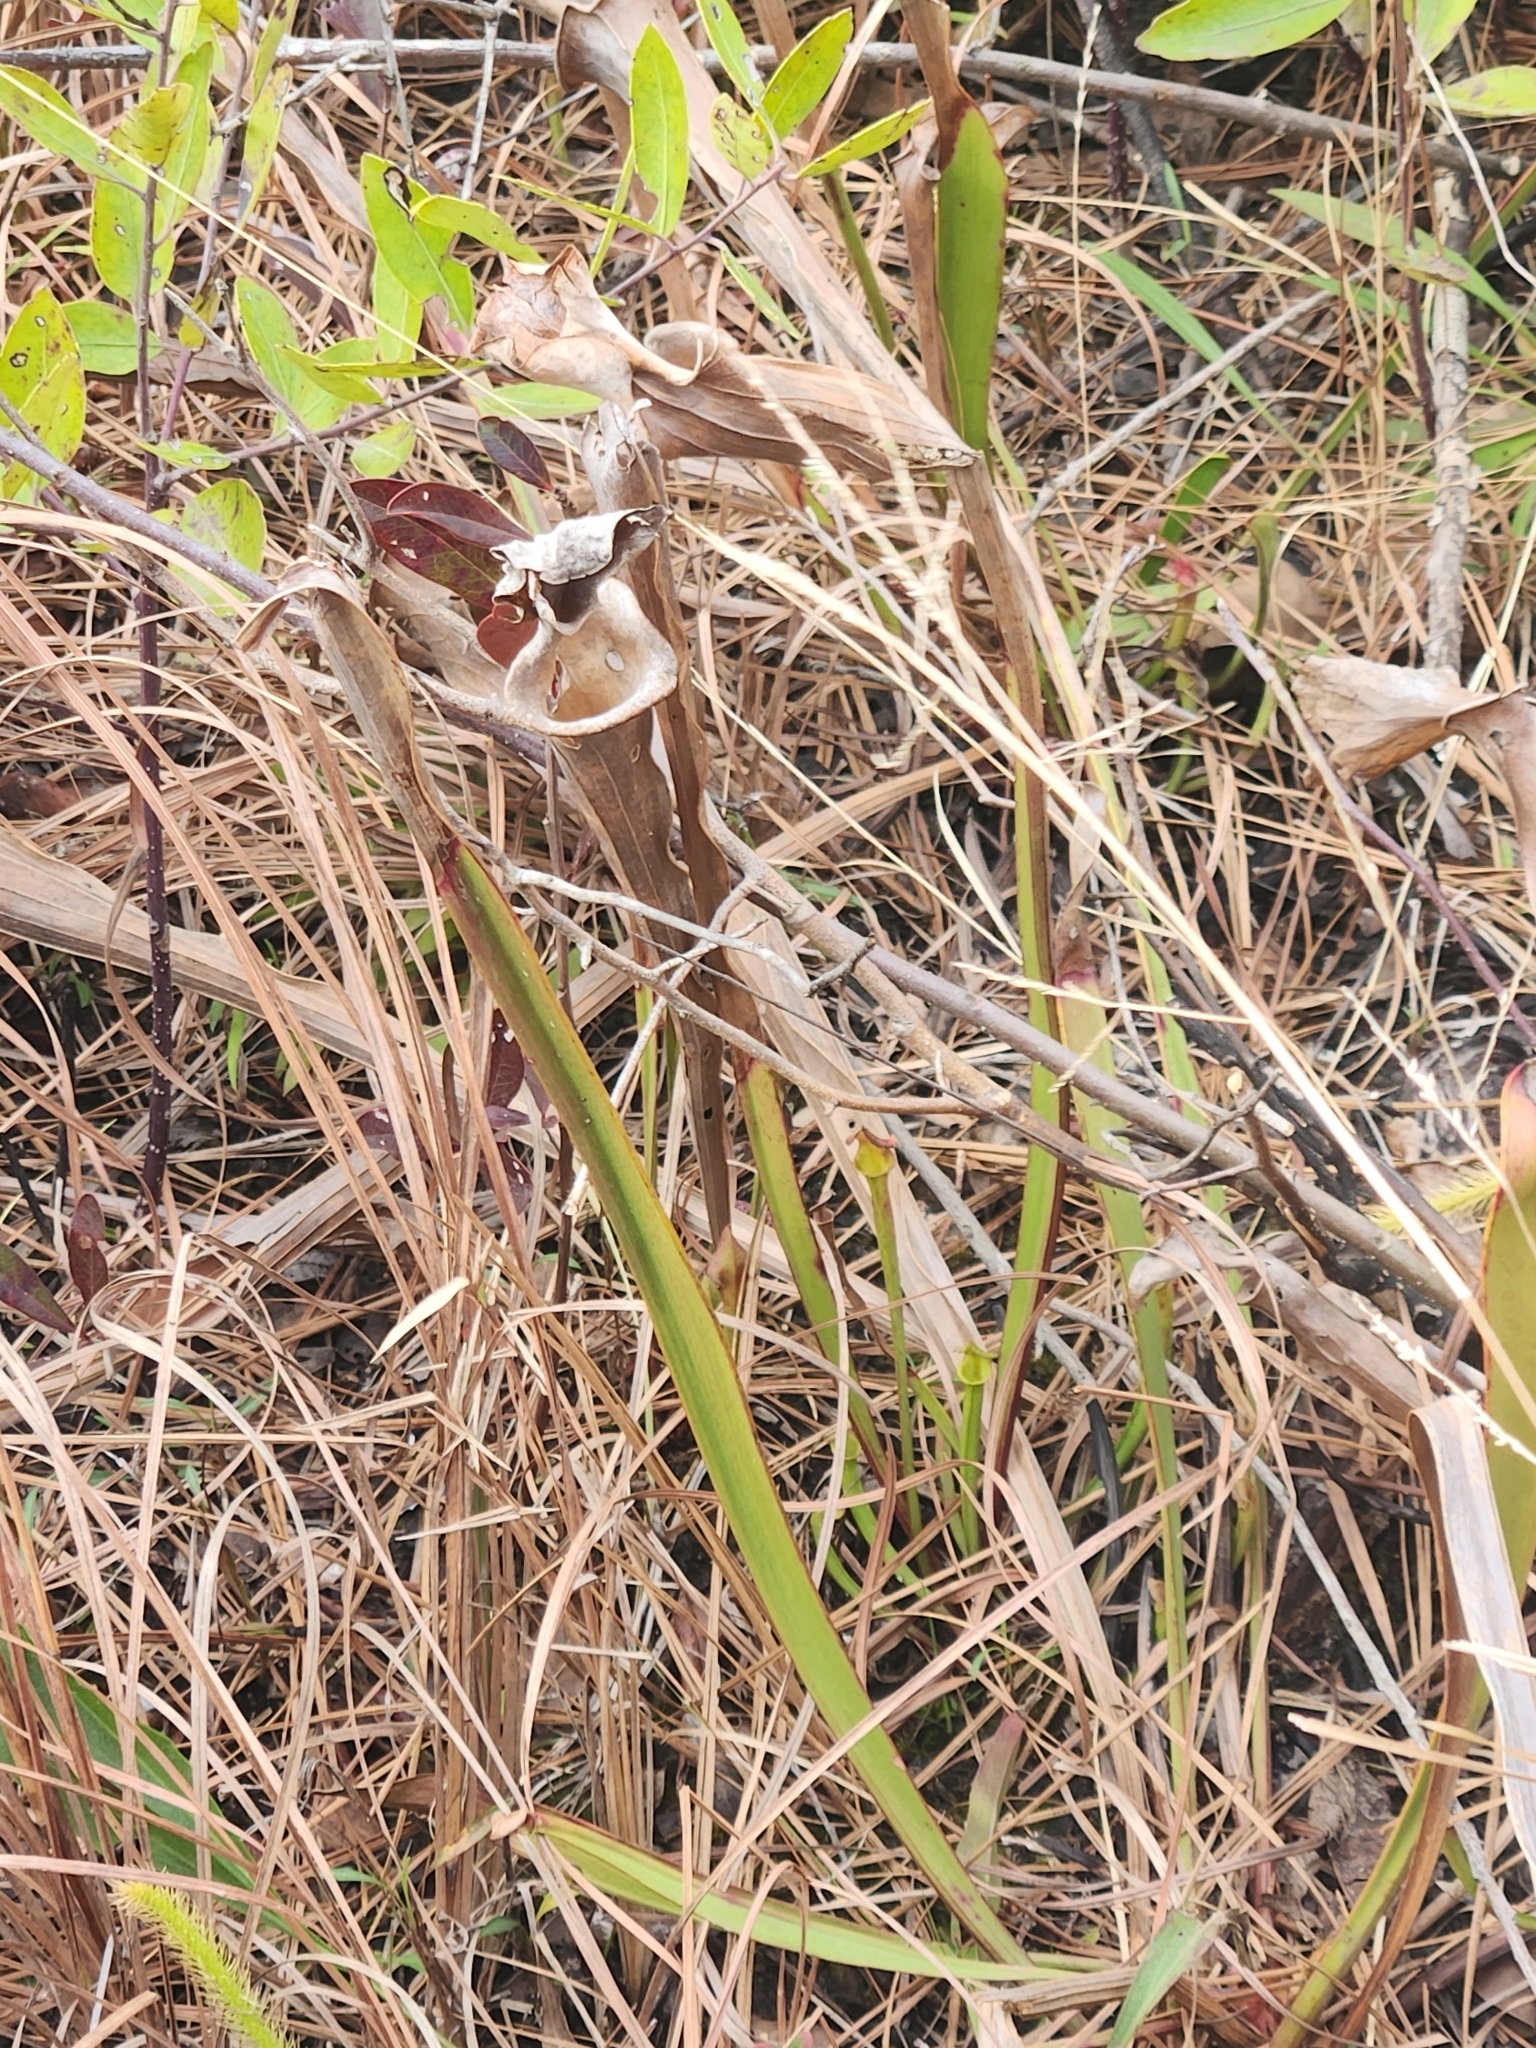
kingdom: Plantae
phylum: Tracheophyta
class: Magnoliopsida
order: Ericales
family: Sarraceniaceae
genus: Sarracenia
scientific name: Sarracenia flava
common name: Trumpets
